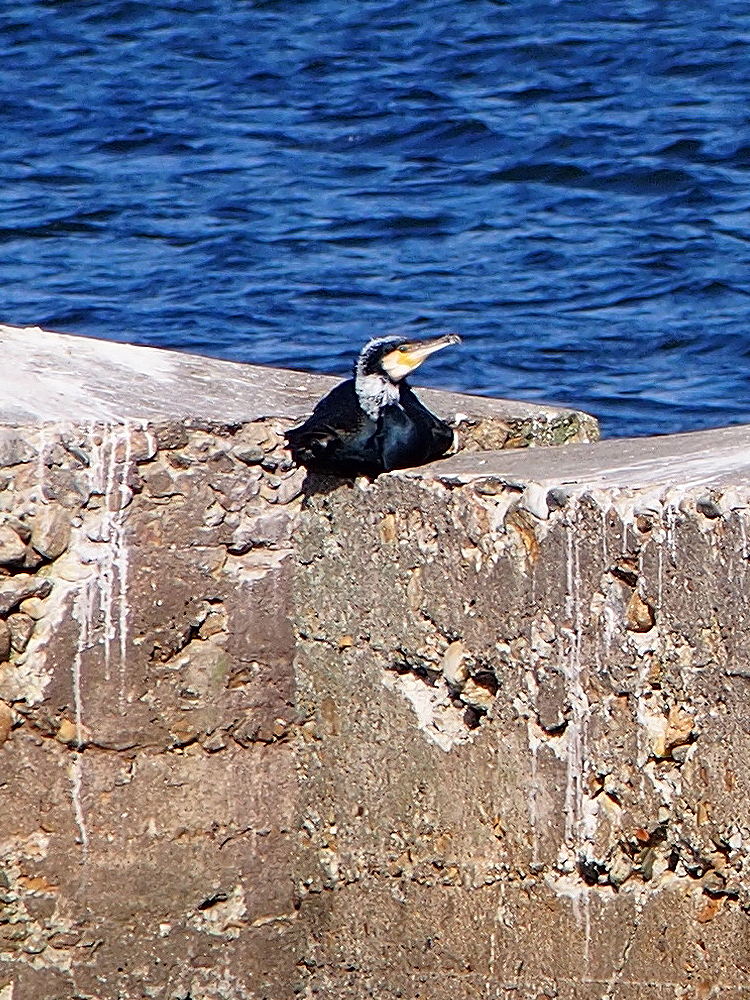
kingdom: Animalia
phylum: Chordata
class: Aves
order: Suliformes
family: Phalacrocoracidae
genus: Phalacrocorax
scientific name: Phalacrocorax carbo
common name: Great cormorant
